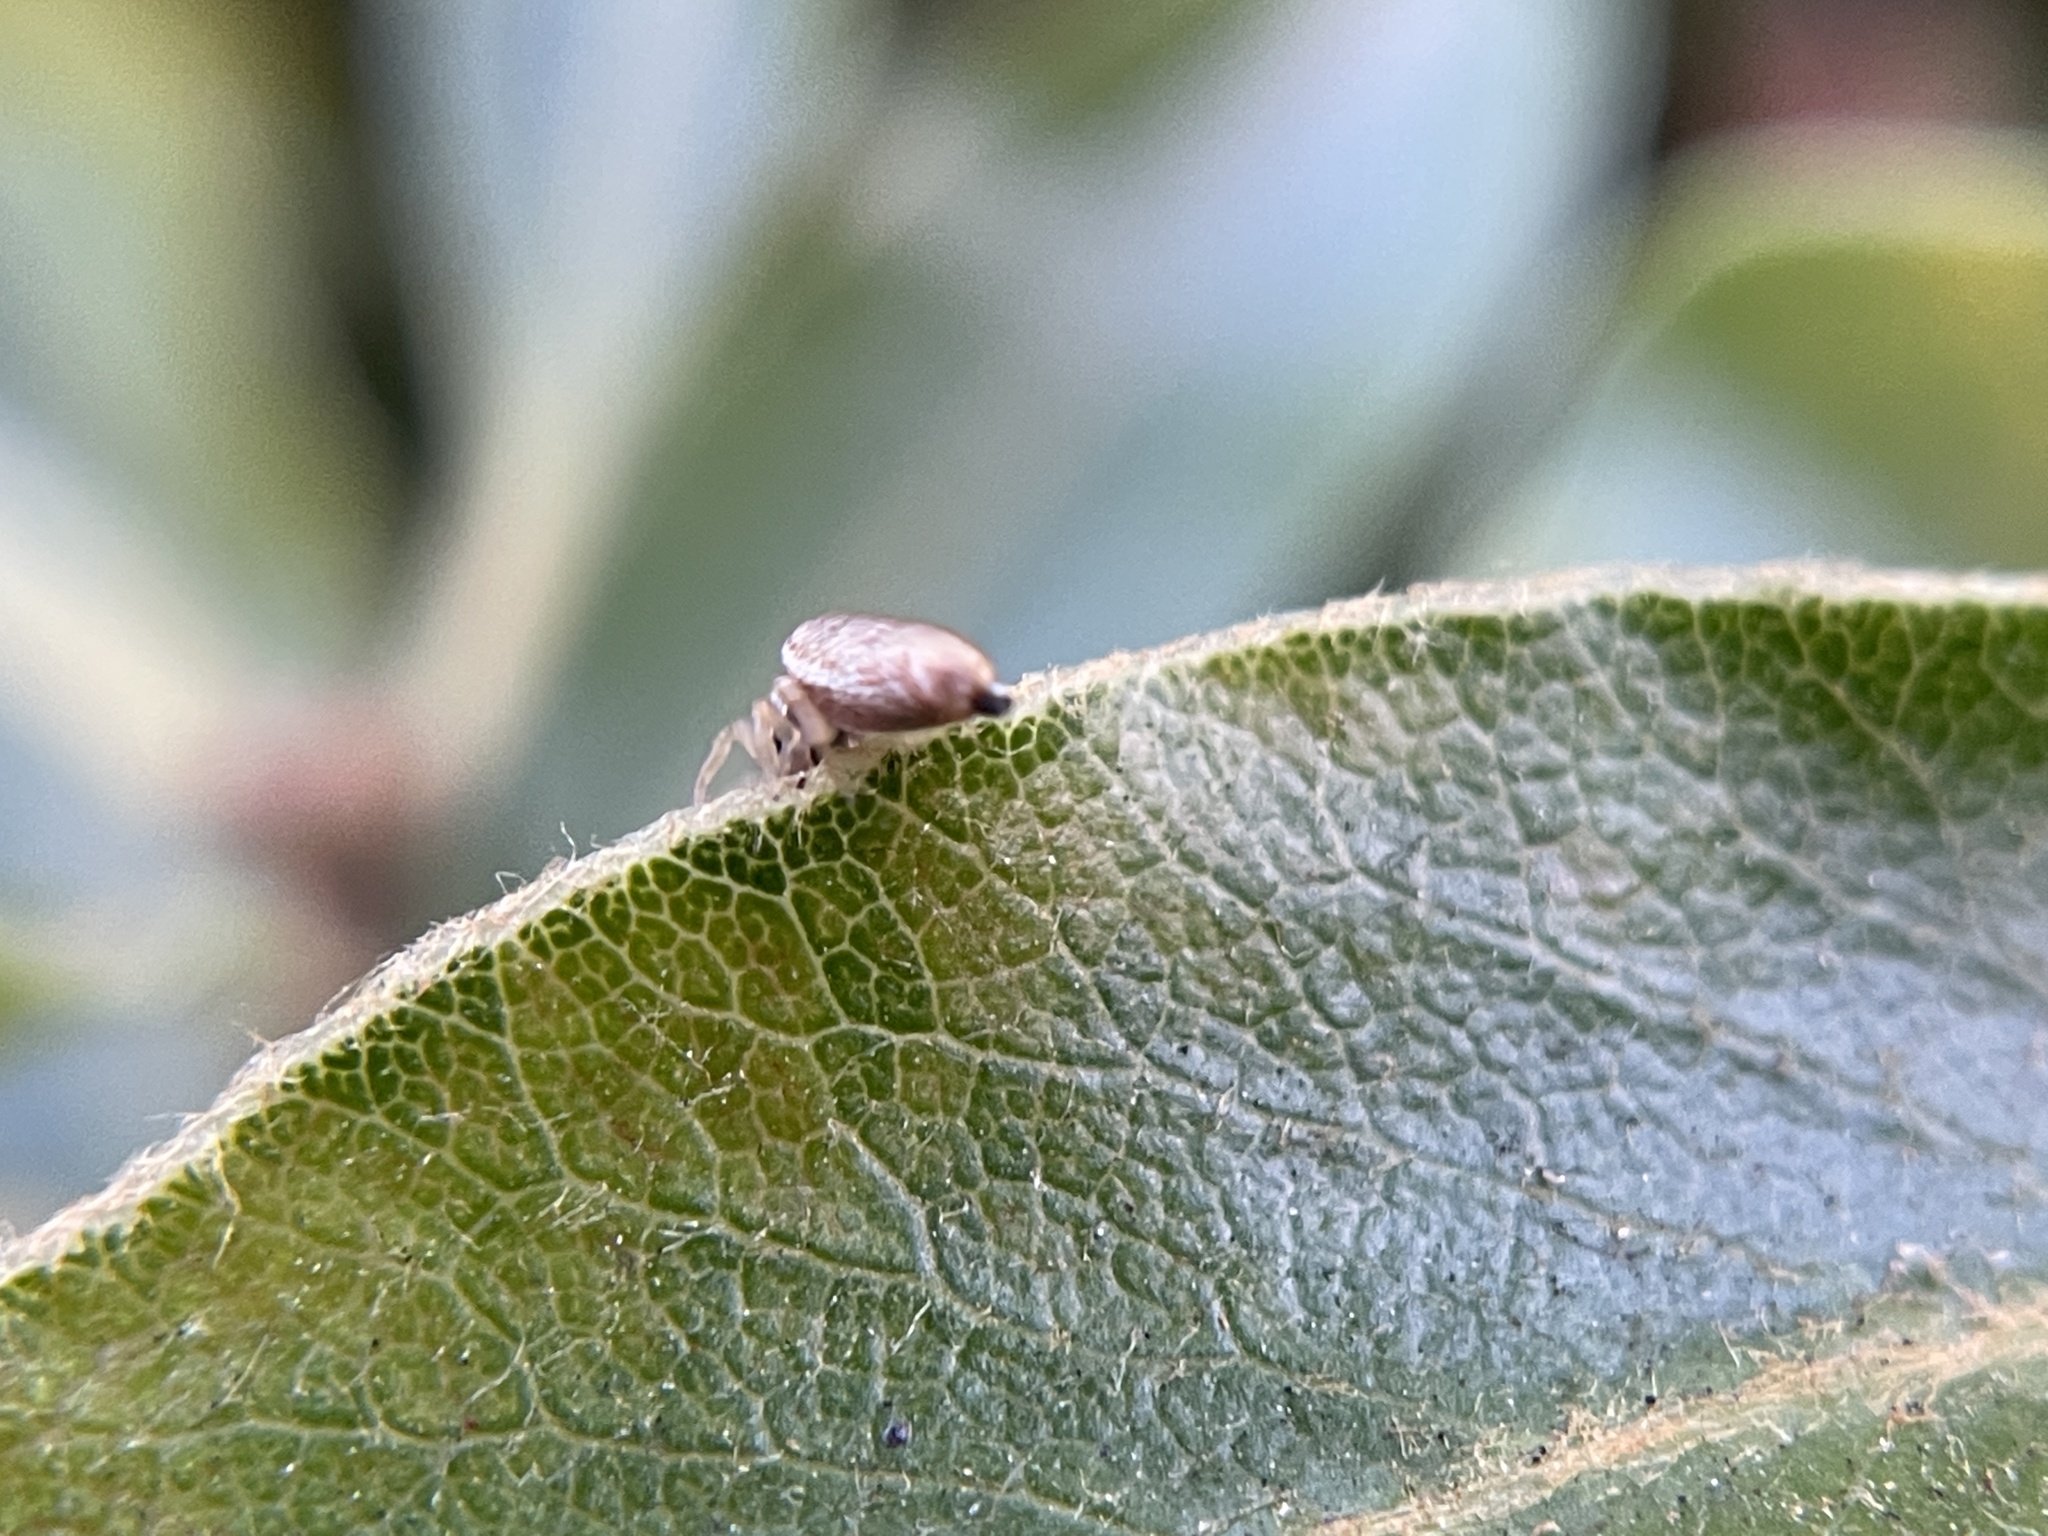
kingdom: Animalia
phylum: Arthropoda
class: Arachnida
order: Araneae
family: Salticidae
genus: Sassacus
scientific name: Sassacus vitis
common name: Jumping spiders
